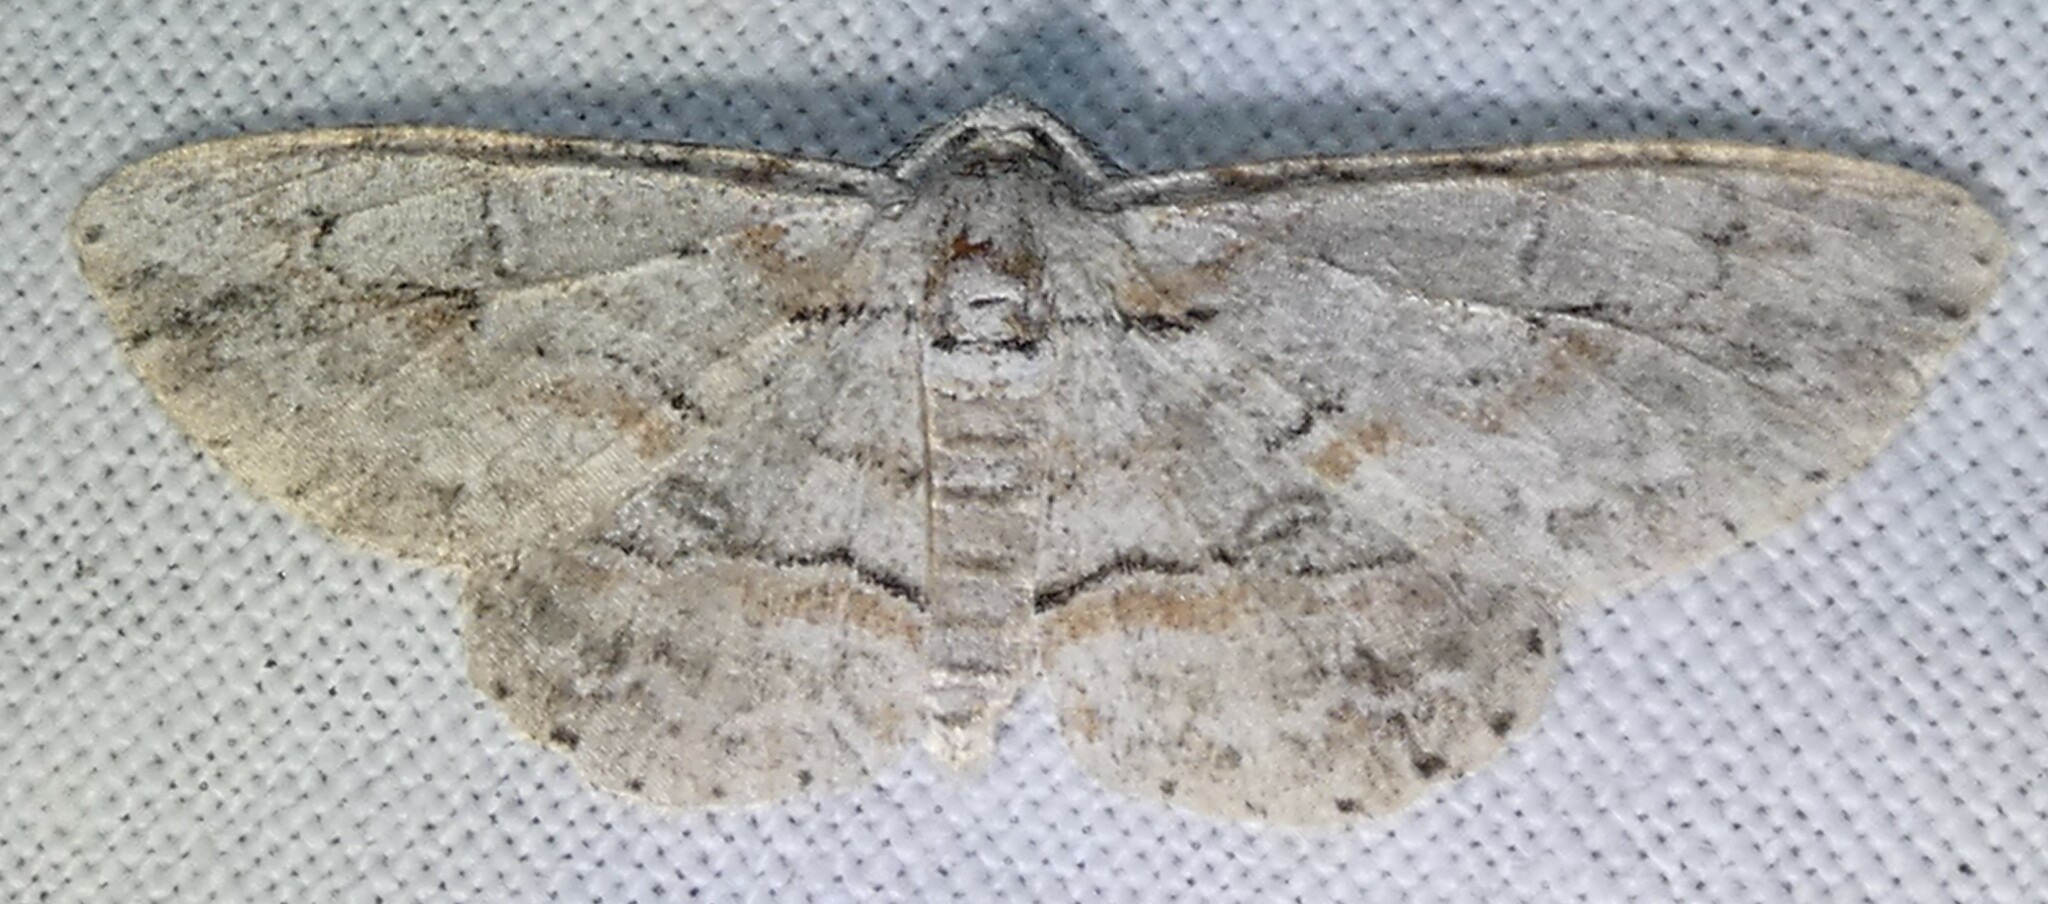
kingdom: Animalia
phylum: Arthropoda
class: Insecta
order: Lepidoptera
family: Geometridae
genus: Iridopsis
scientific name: Iridopsis defectaria
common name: Brown-shaded gray
